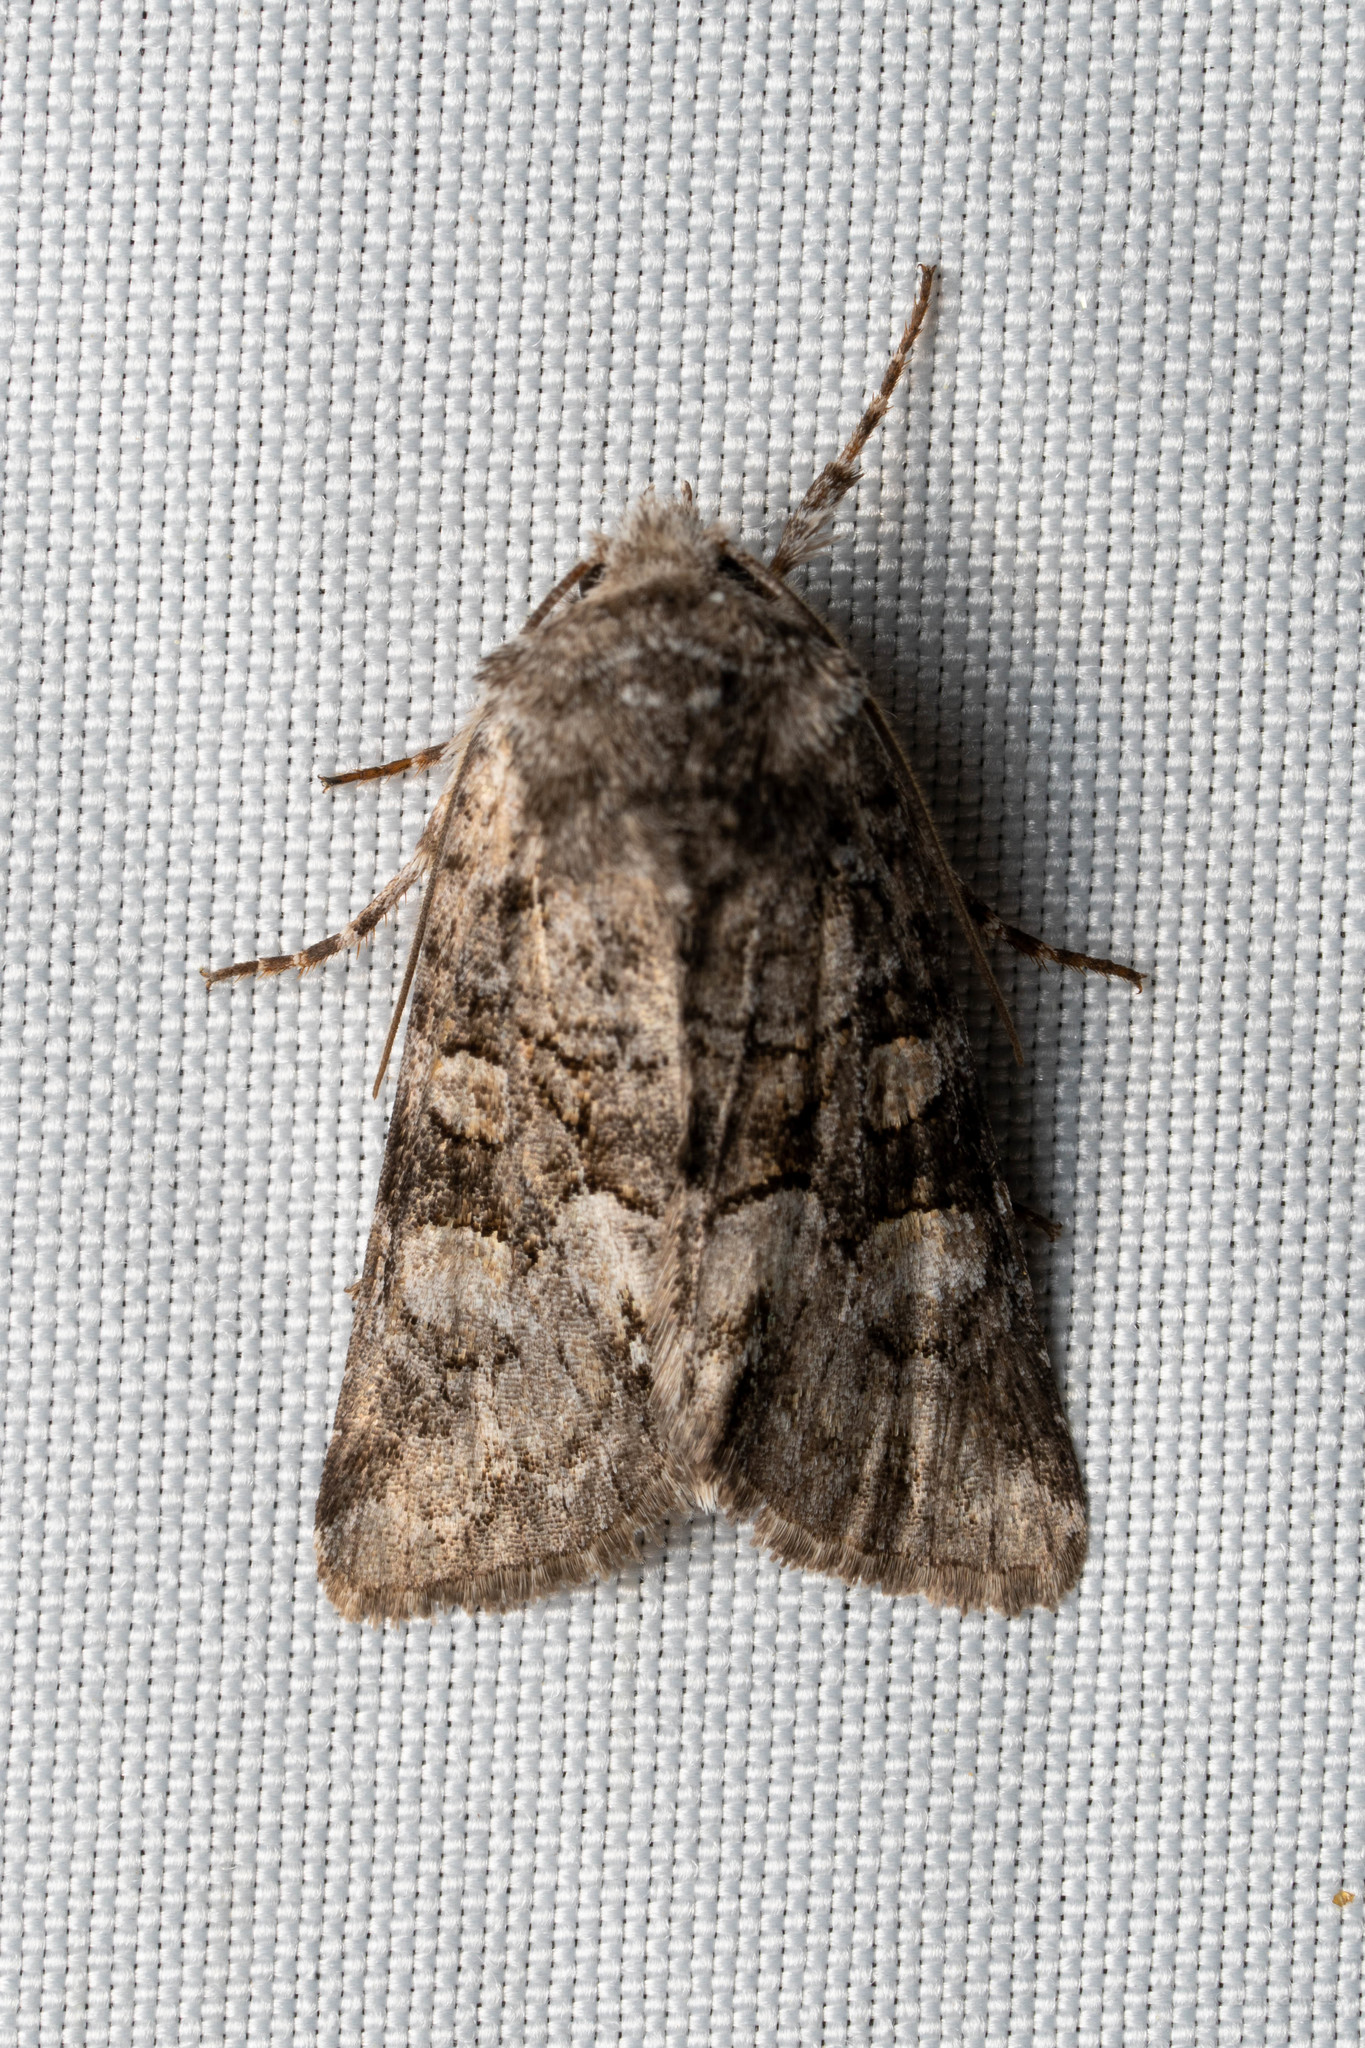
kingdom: Animalia
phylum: Arthropoda
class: Insecta
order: Lepidoptera
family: Noctuidae
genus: Lacinipolia
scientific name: Lacinipolia anguina
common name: Snaky arches moth
